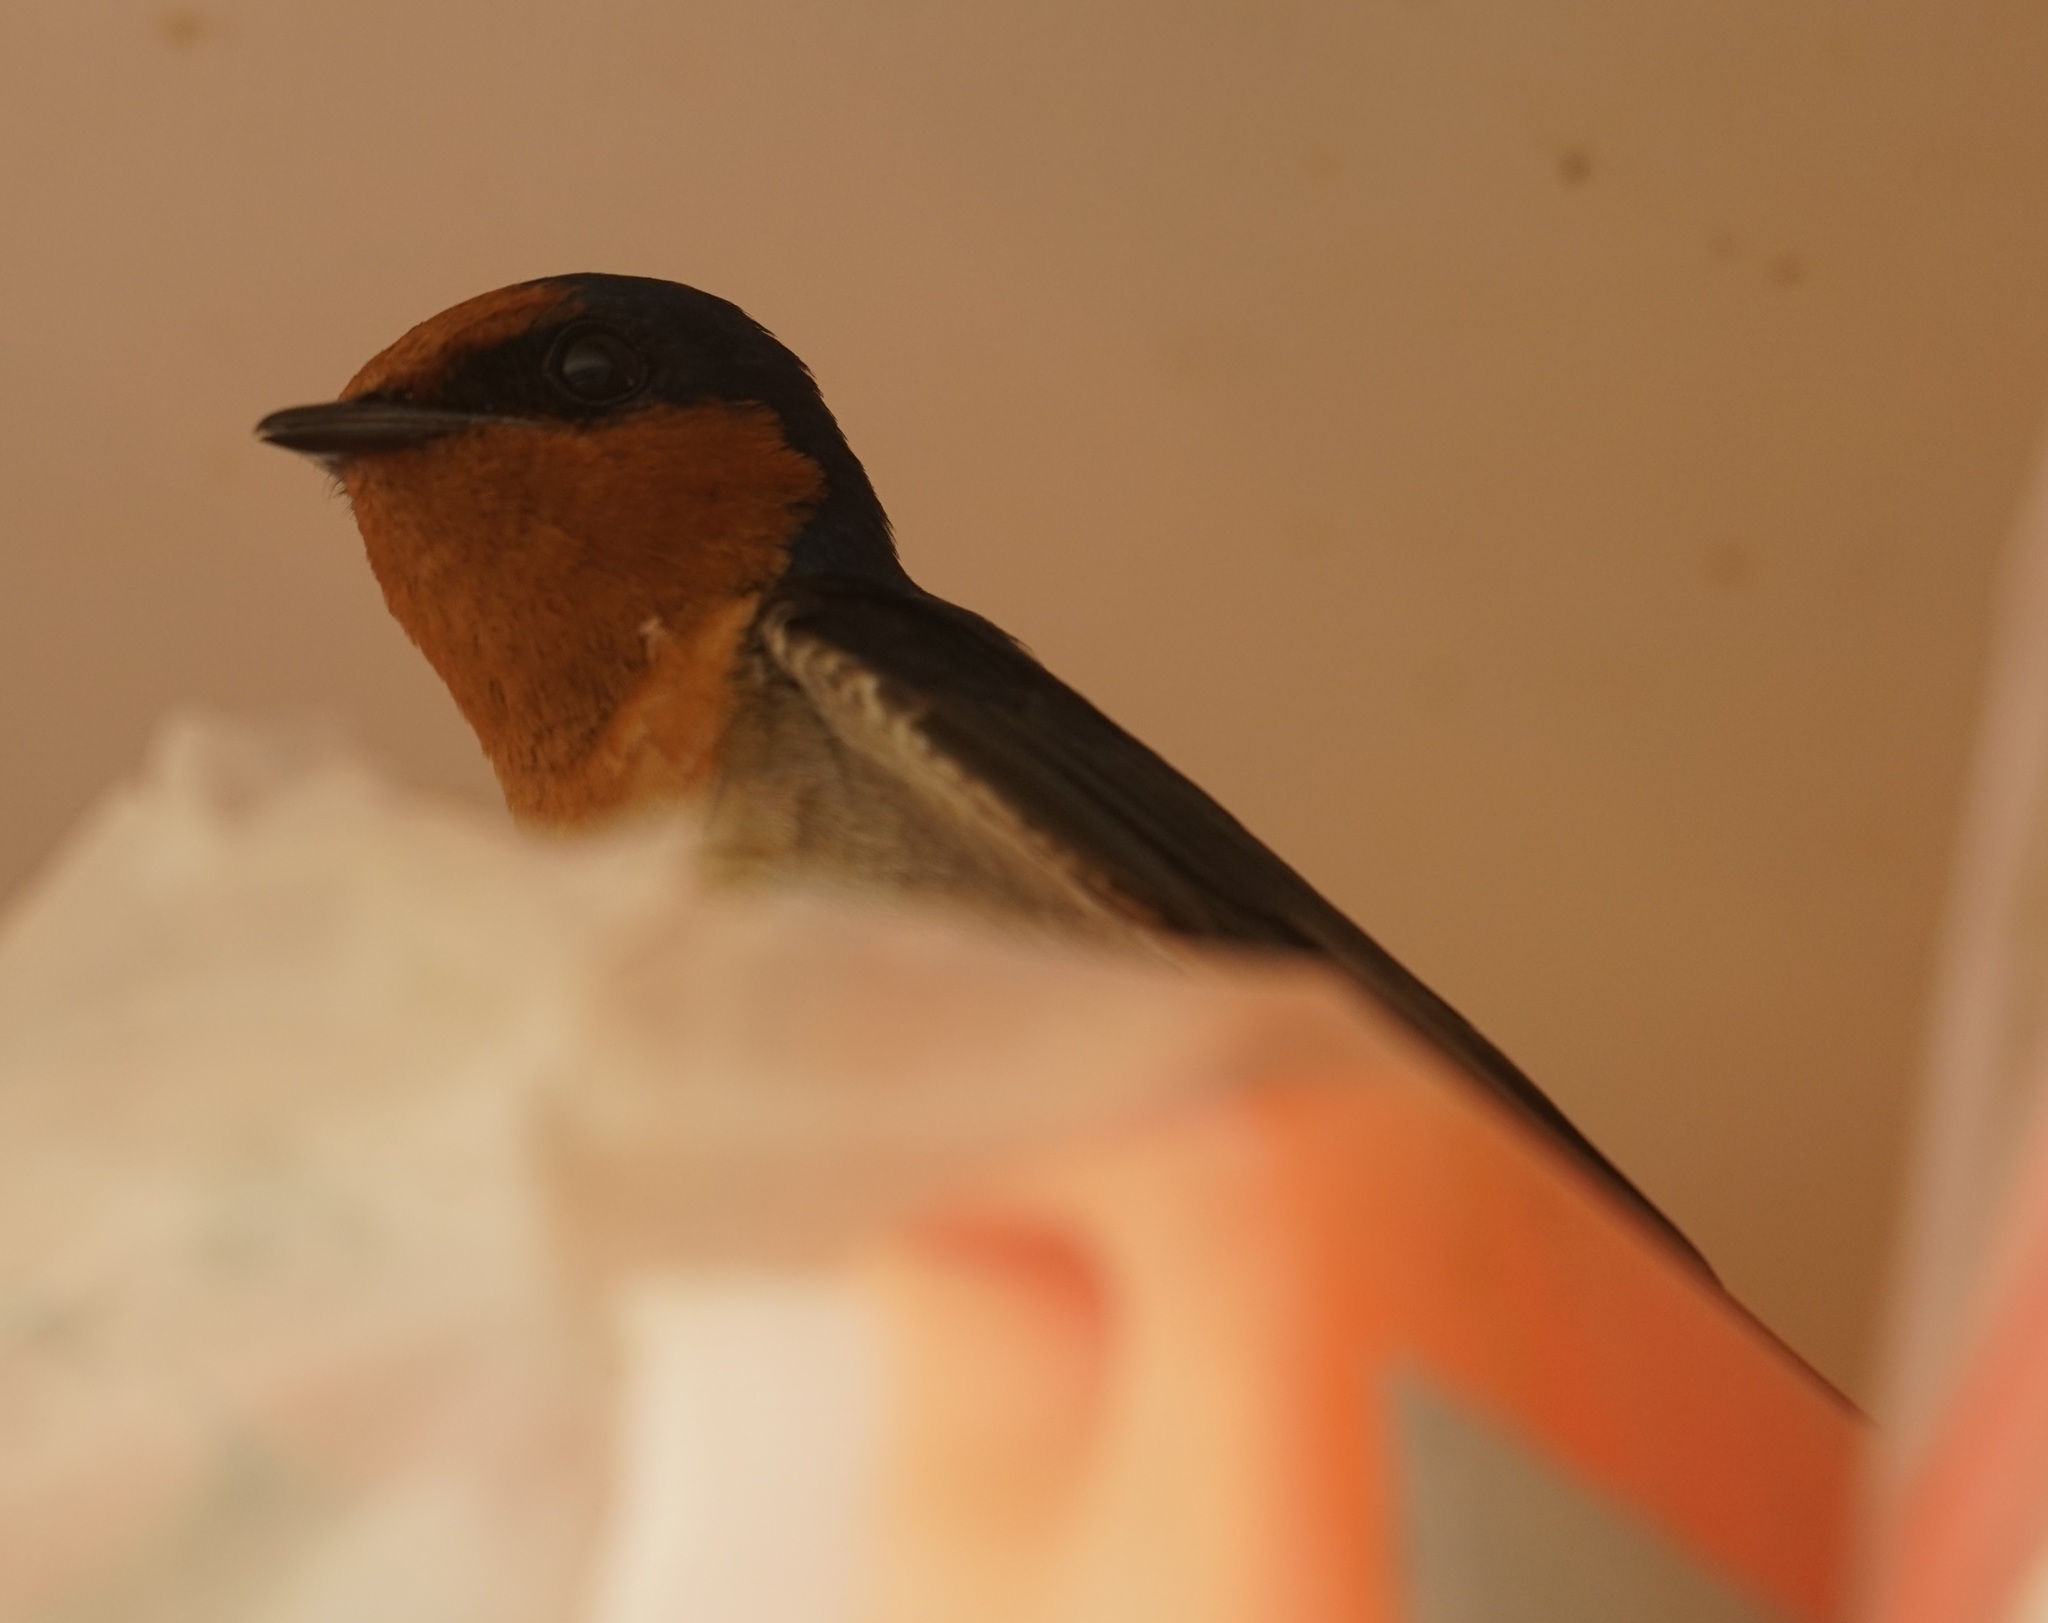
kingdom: Animalia
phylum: Chordata
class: Aves
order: Passeriformes
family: Hirundinidae
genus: Hirundo
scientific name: Hirundo neoxena
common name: Welcome swallow
